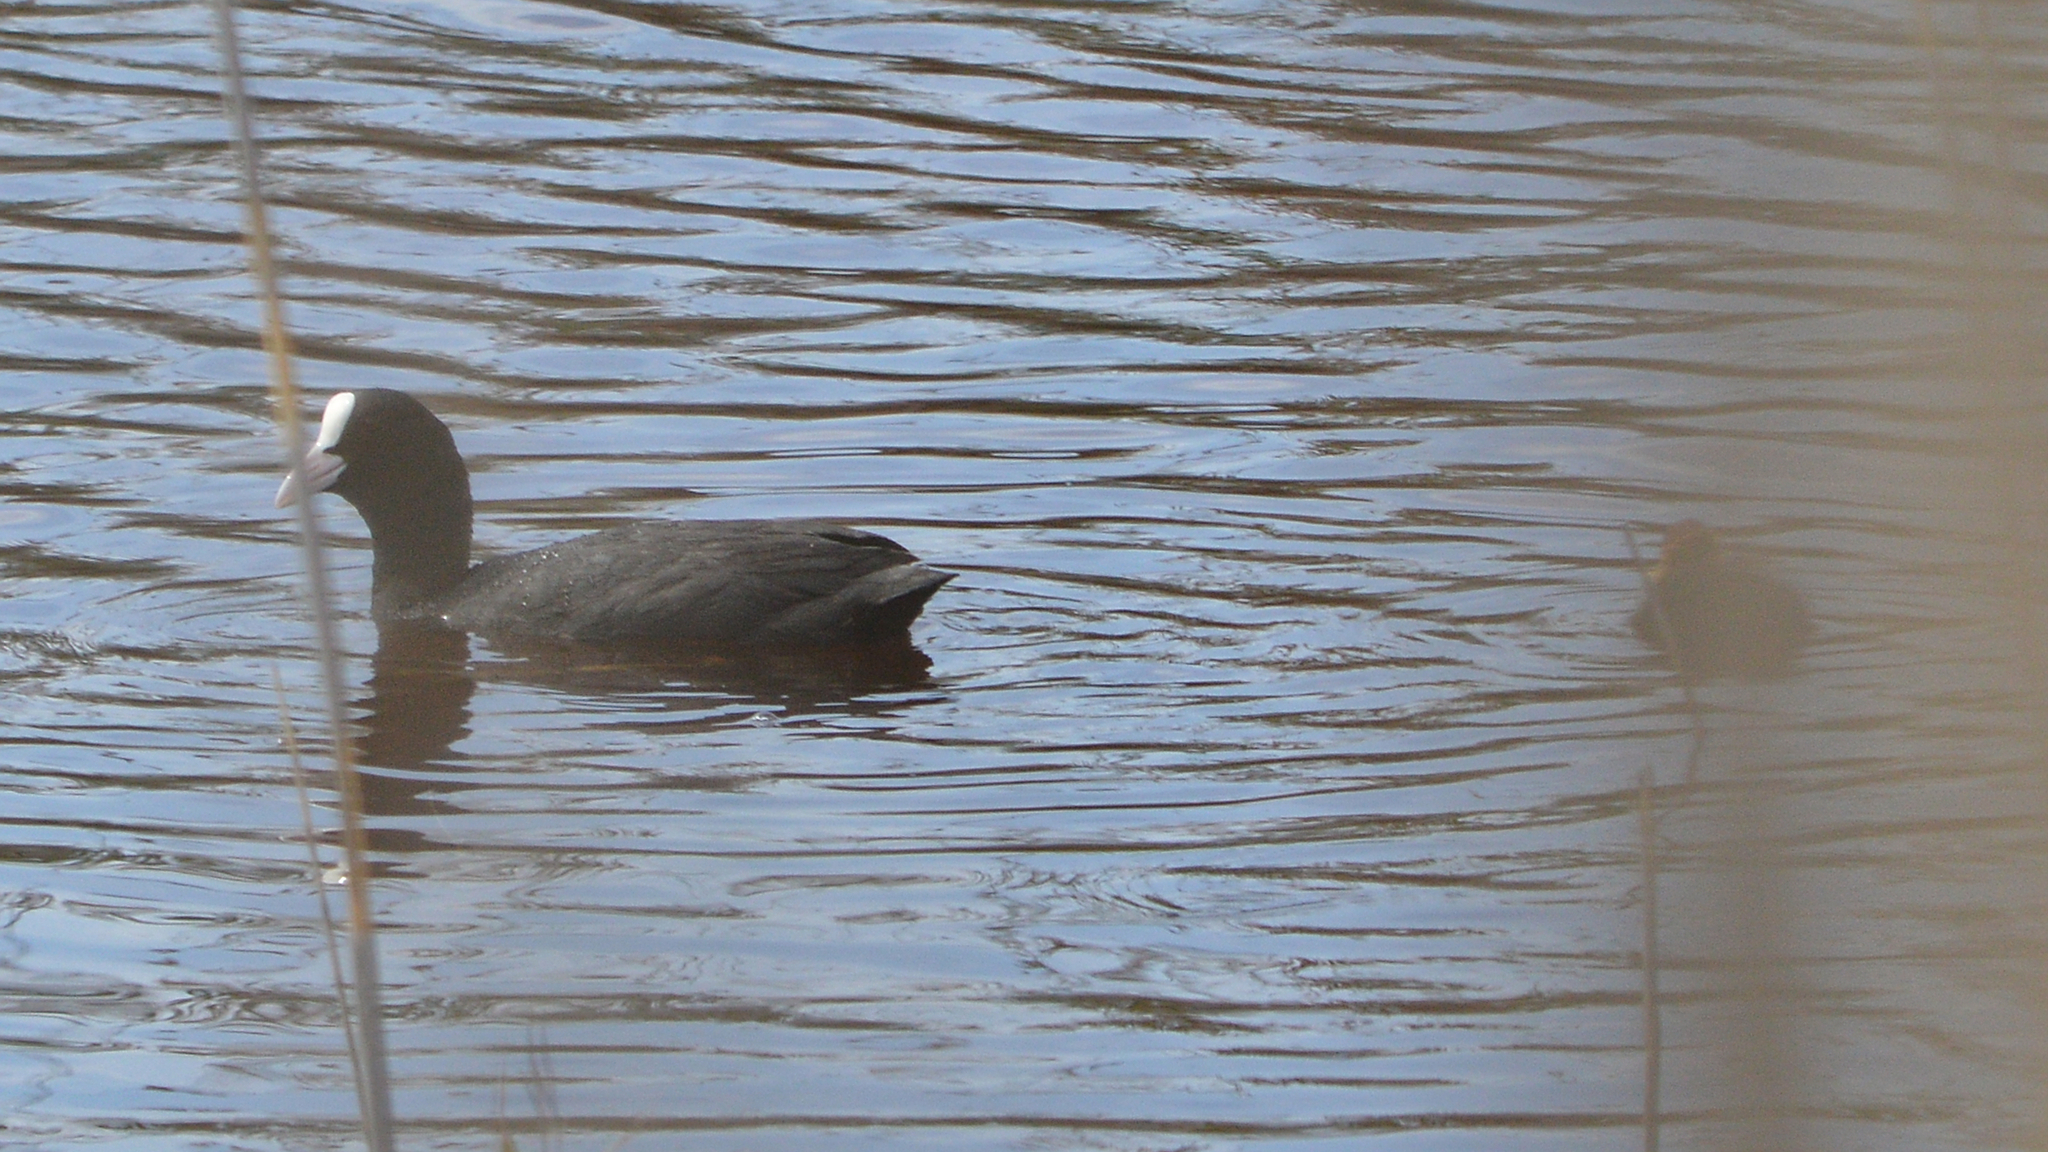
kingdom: Animalia
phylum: Chordata
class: Aves
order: Gruiformes
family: Rallidae
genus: Fulica
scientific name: Fulica atra
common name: Eurasian coot
